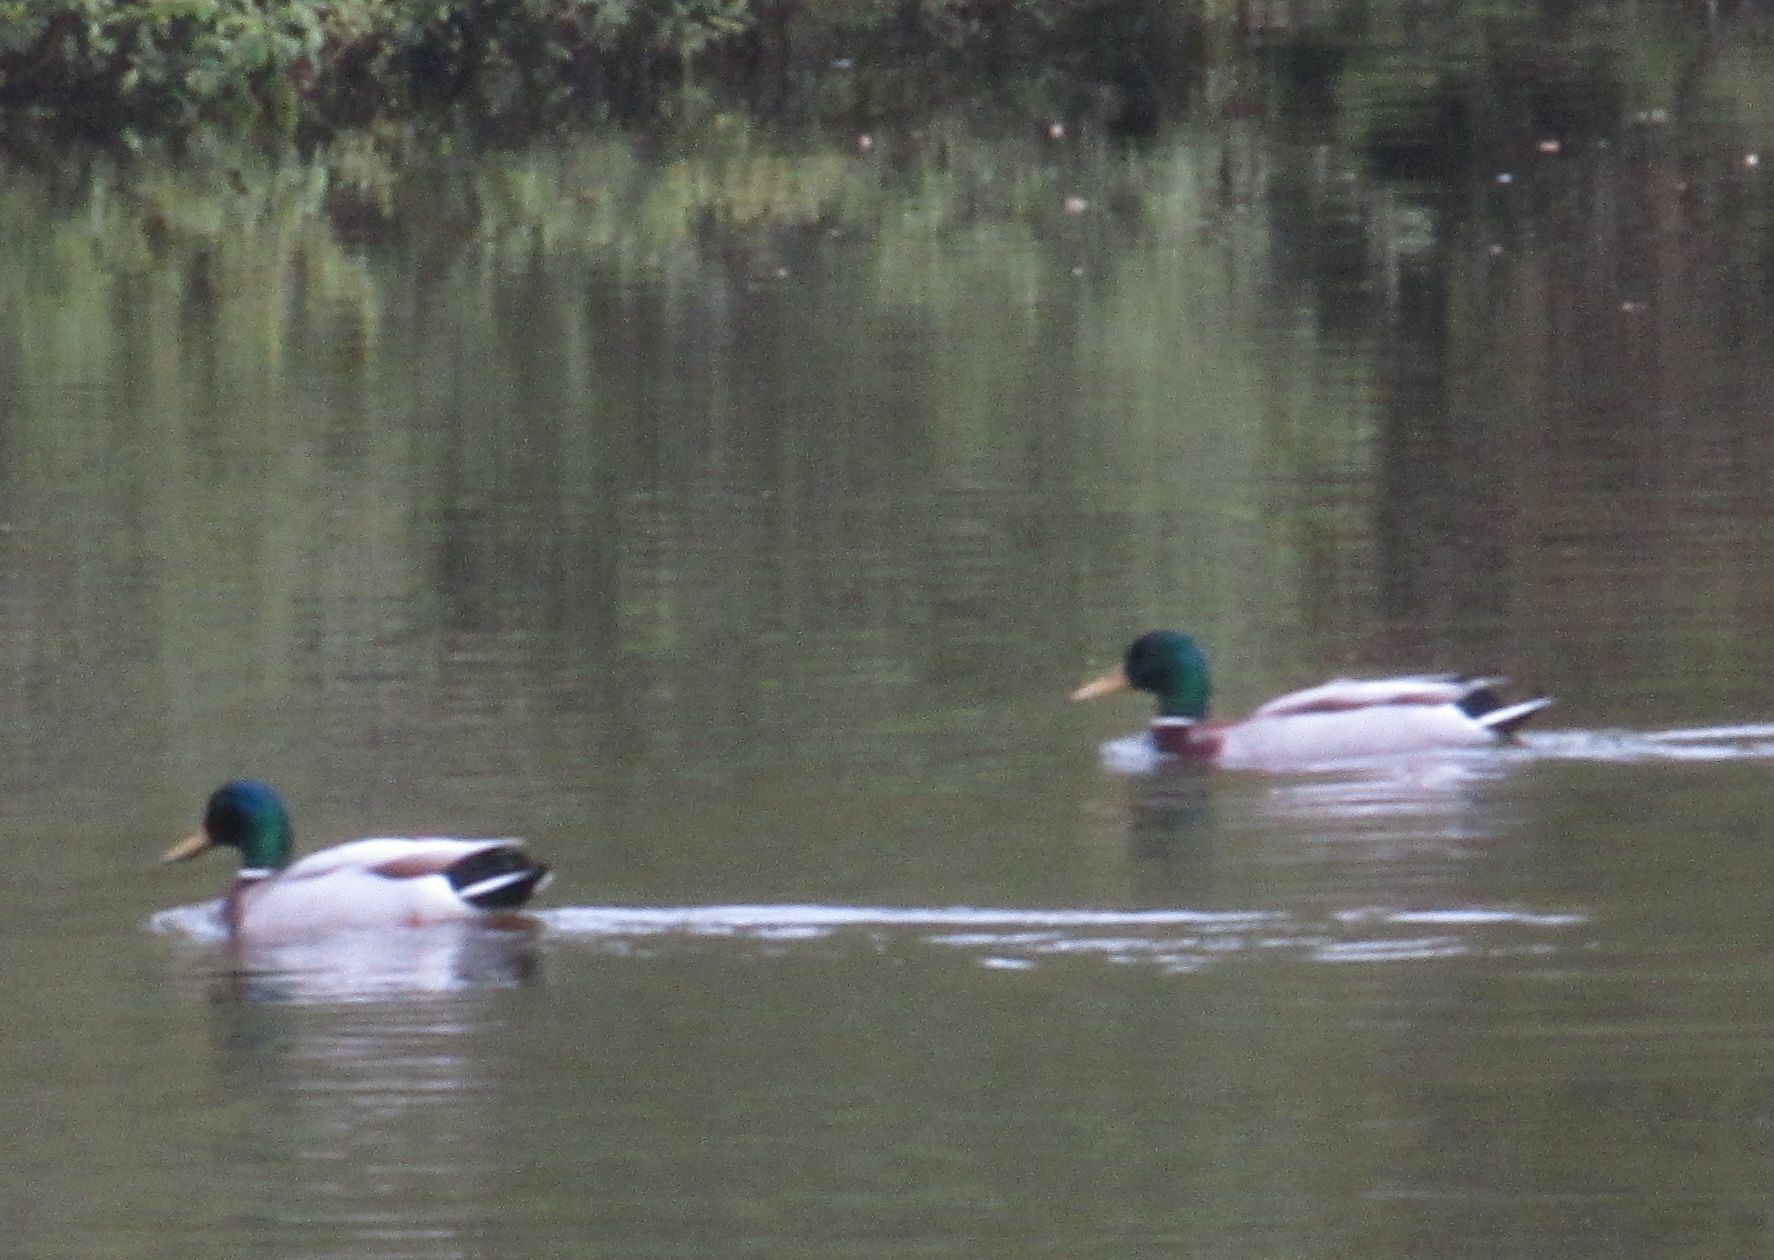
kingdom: Animalia
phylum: Chordata
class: Aves
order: Anseriformes
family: Anatidae
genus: Anas
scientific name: Anas platyrhynchos
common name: Mallard
